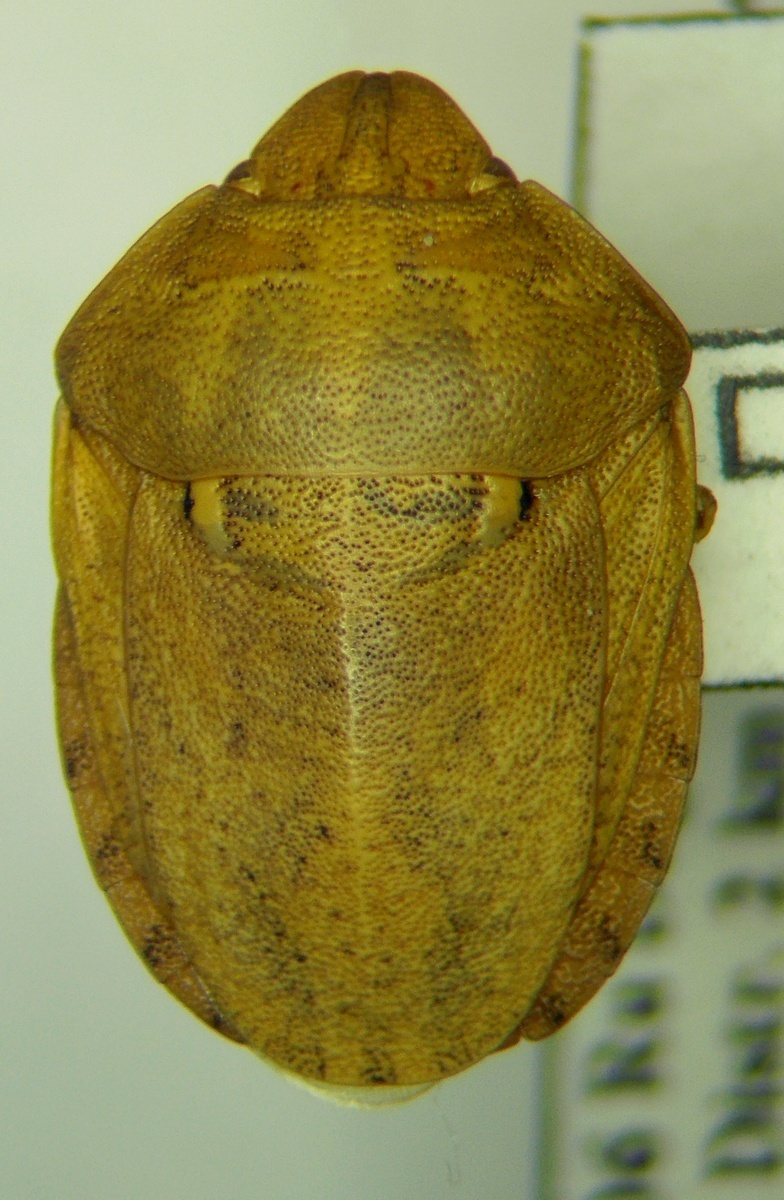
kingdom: Animalia
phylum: Arthropoda
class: Insecta
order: Hemiptera
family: Scutelleridae
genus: Eurygaster
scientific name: Eurygaster integriceps
